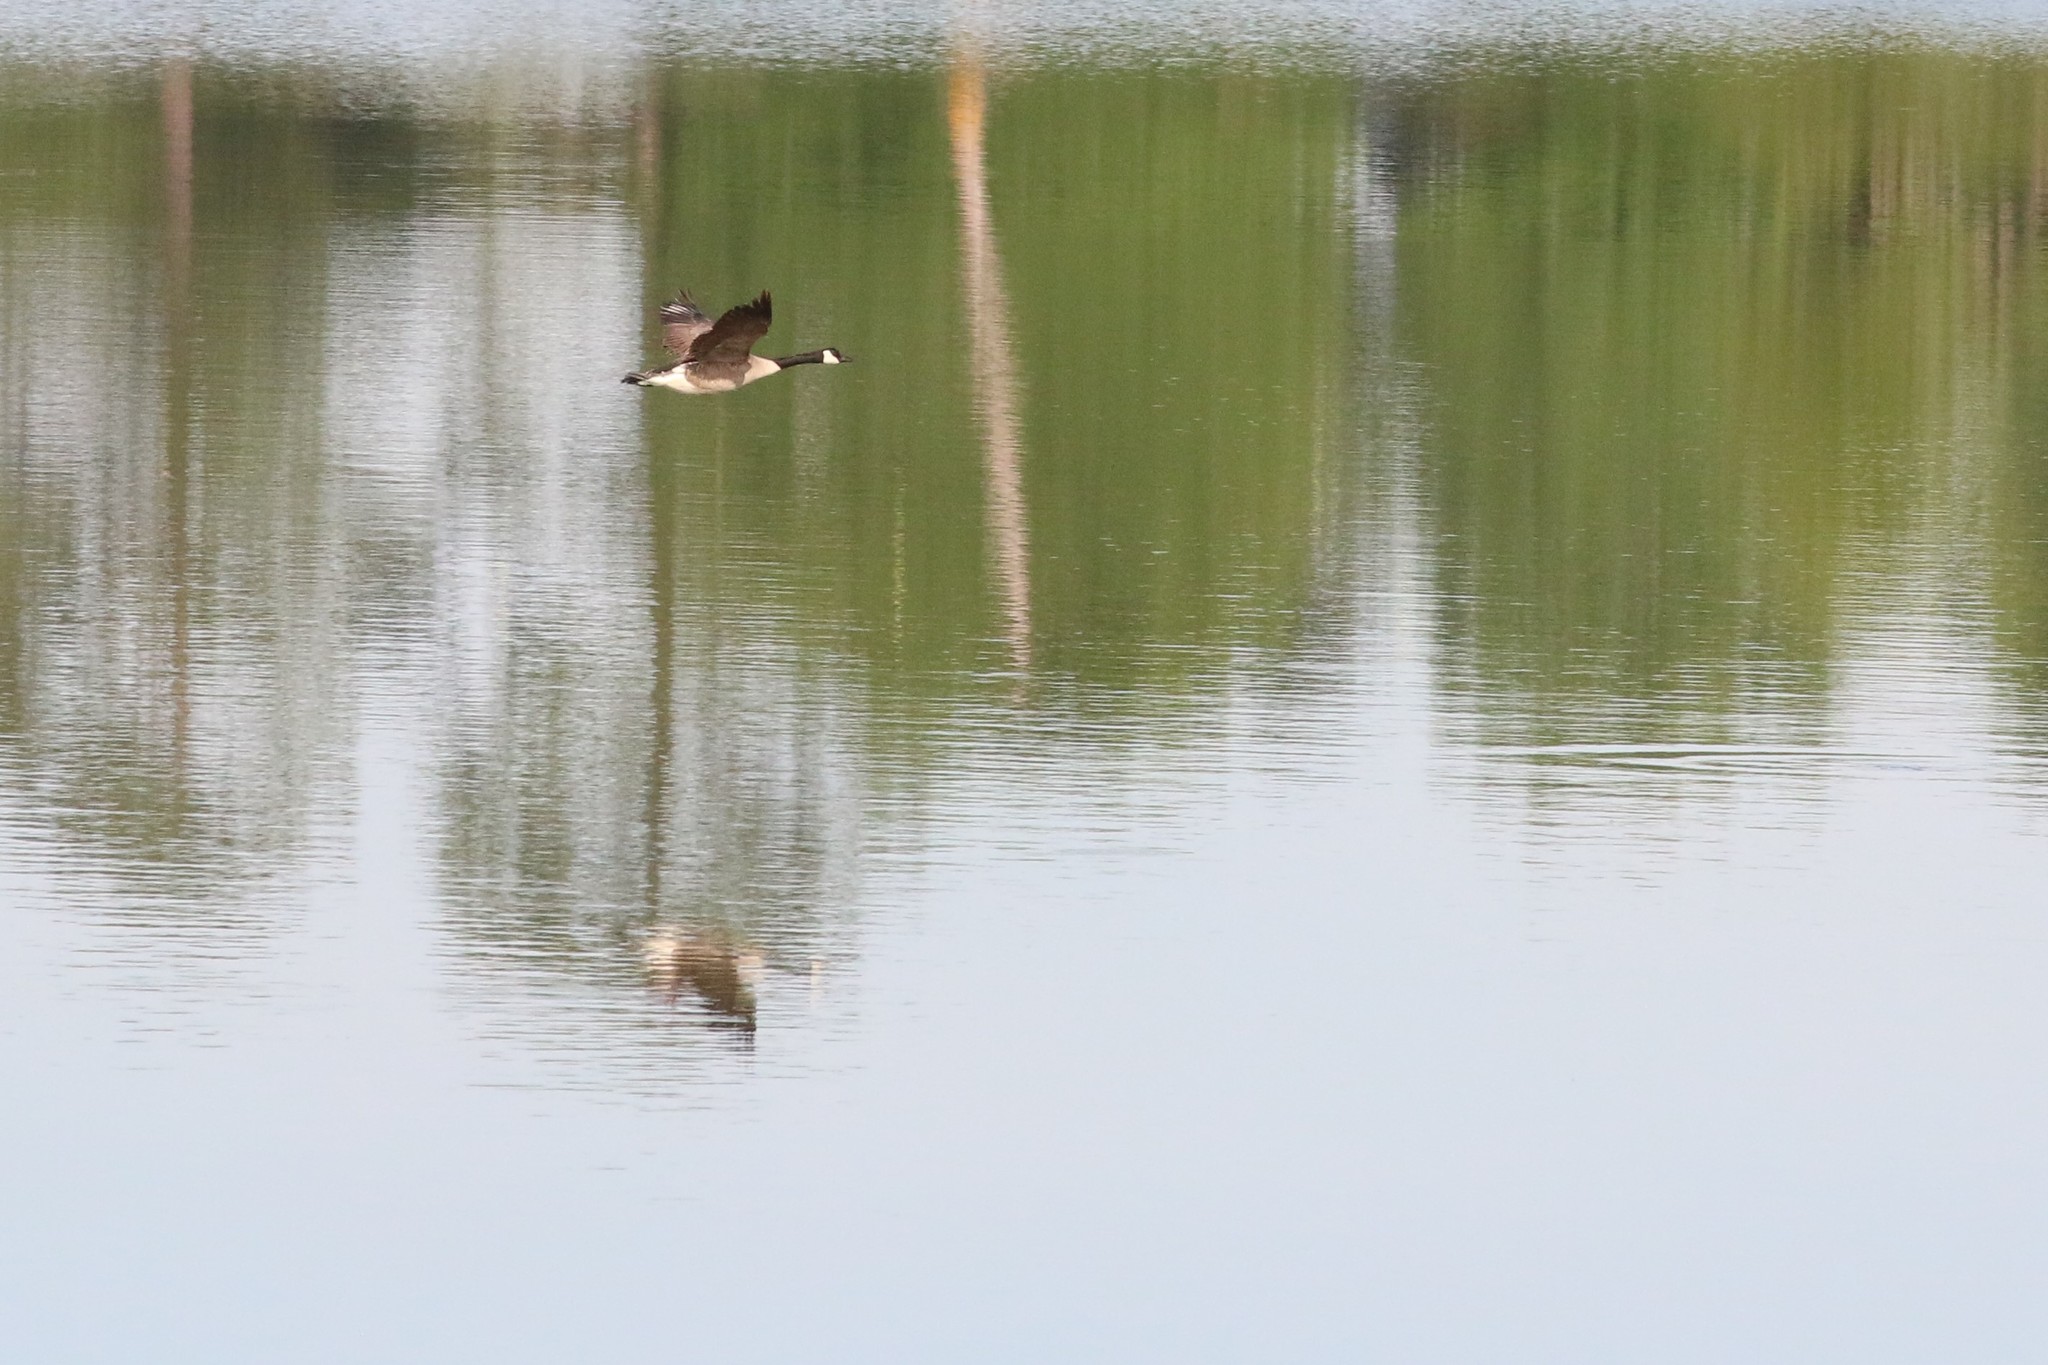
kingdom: Animalia
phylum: Chordata
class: Aves
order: Anseriformes
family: Anatidae
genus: Branta
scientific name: Branta canadensis
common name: Canada goose
